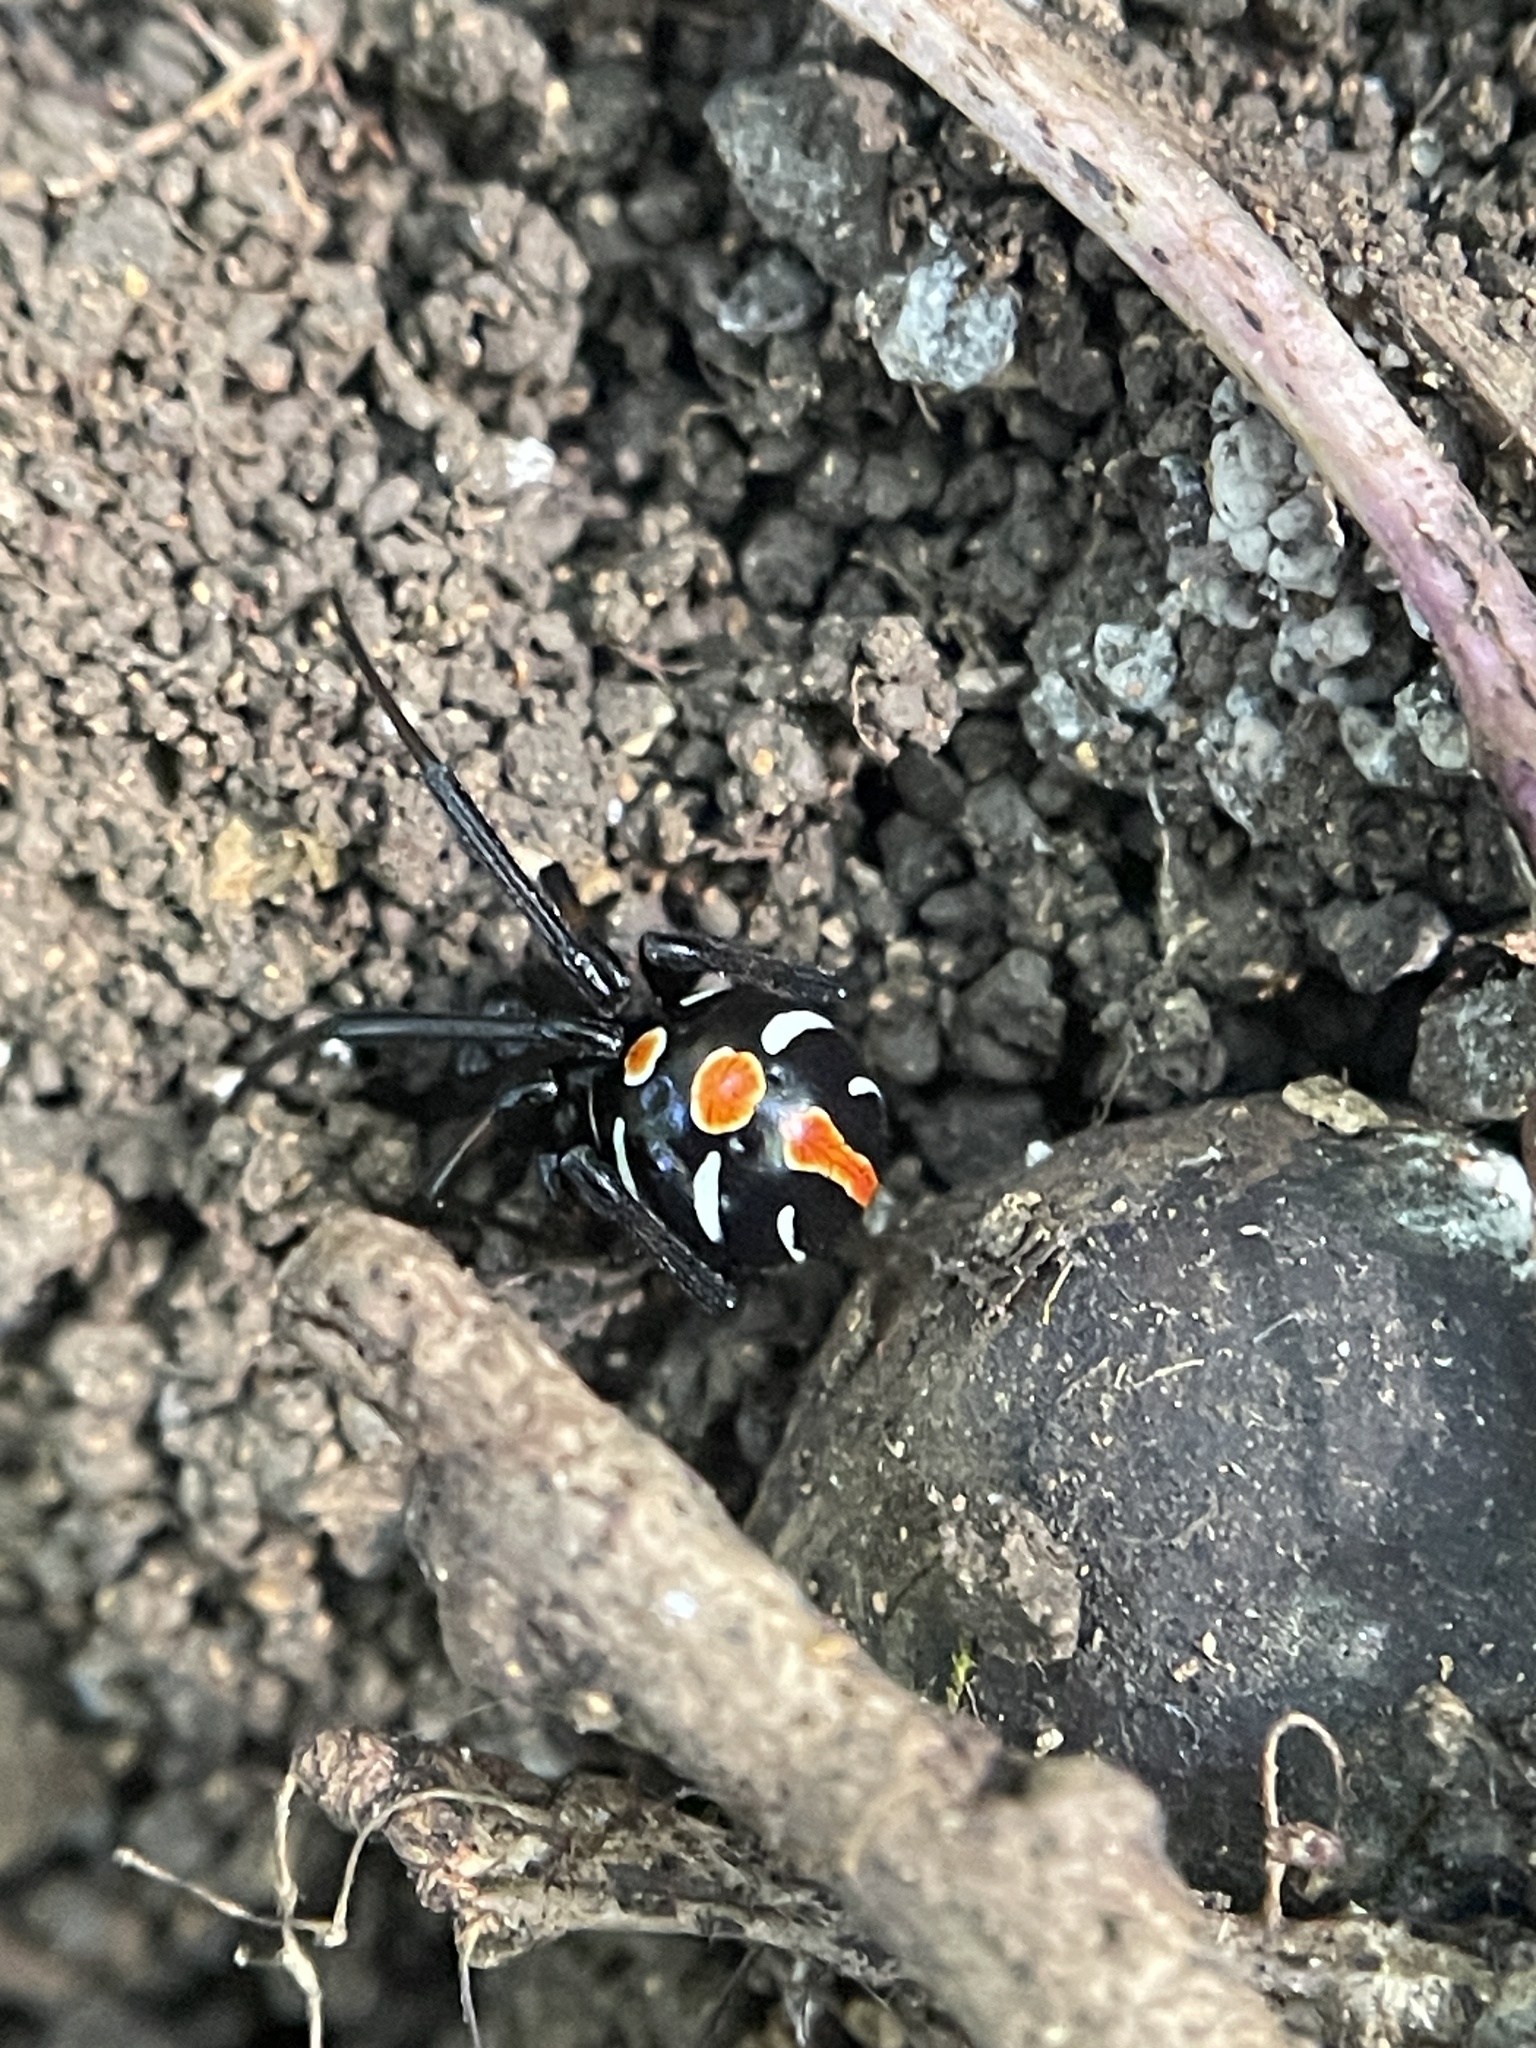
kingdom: Animalia
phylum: Arthropoda
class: Arachnida
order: Araneae
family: Theridiidae
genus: Latrodectus
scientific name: Latrodectus variolus
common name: Northern black widow
